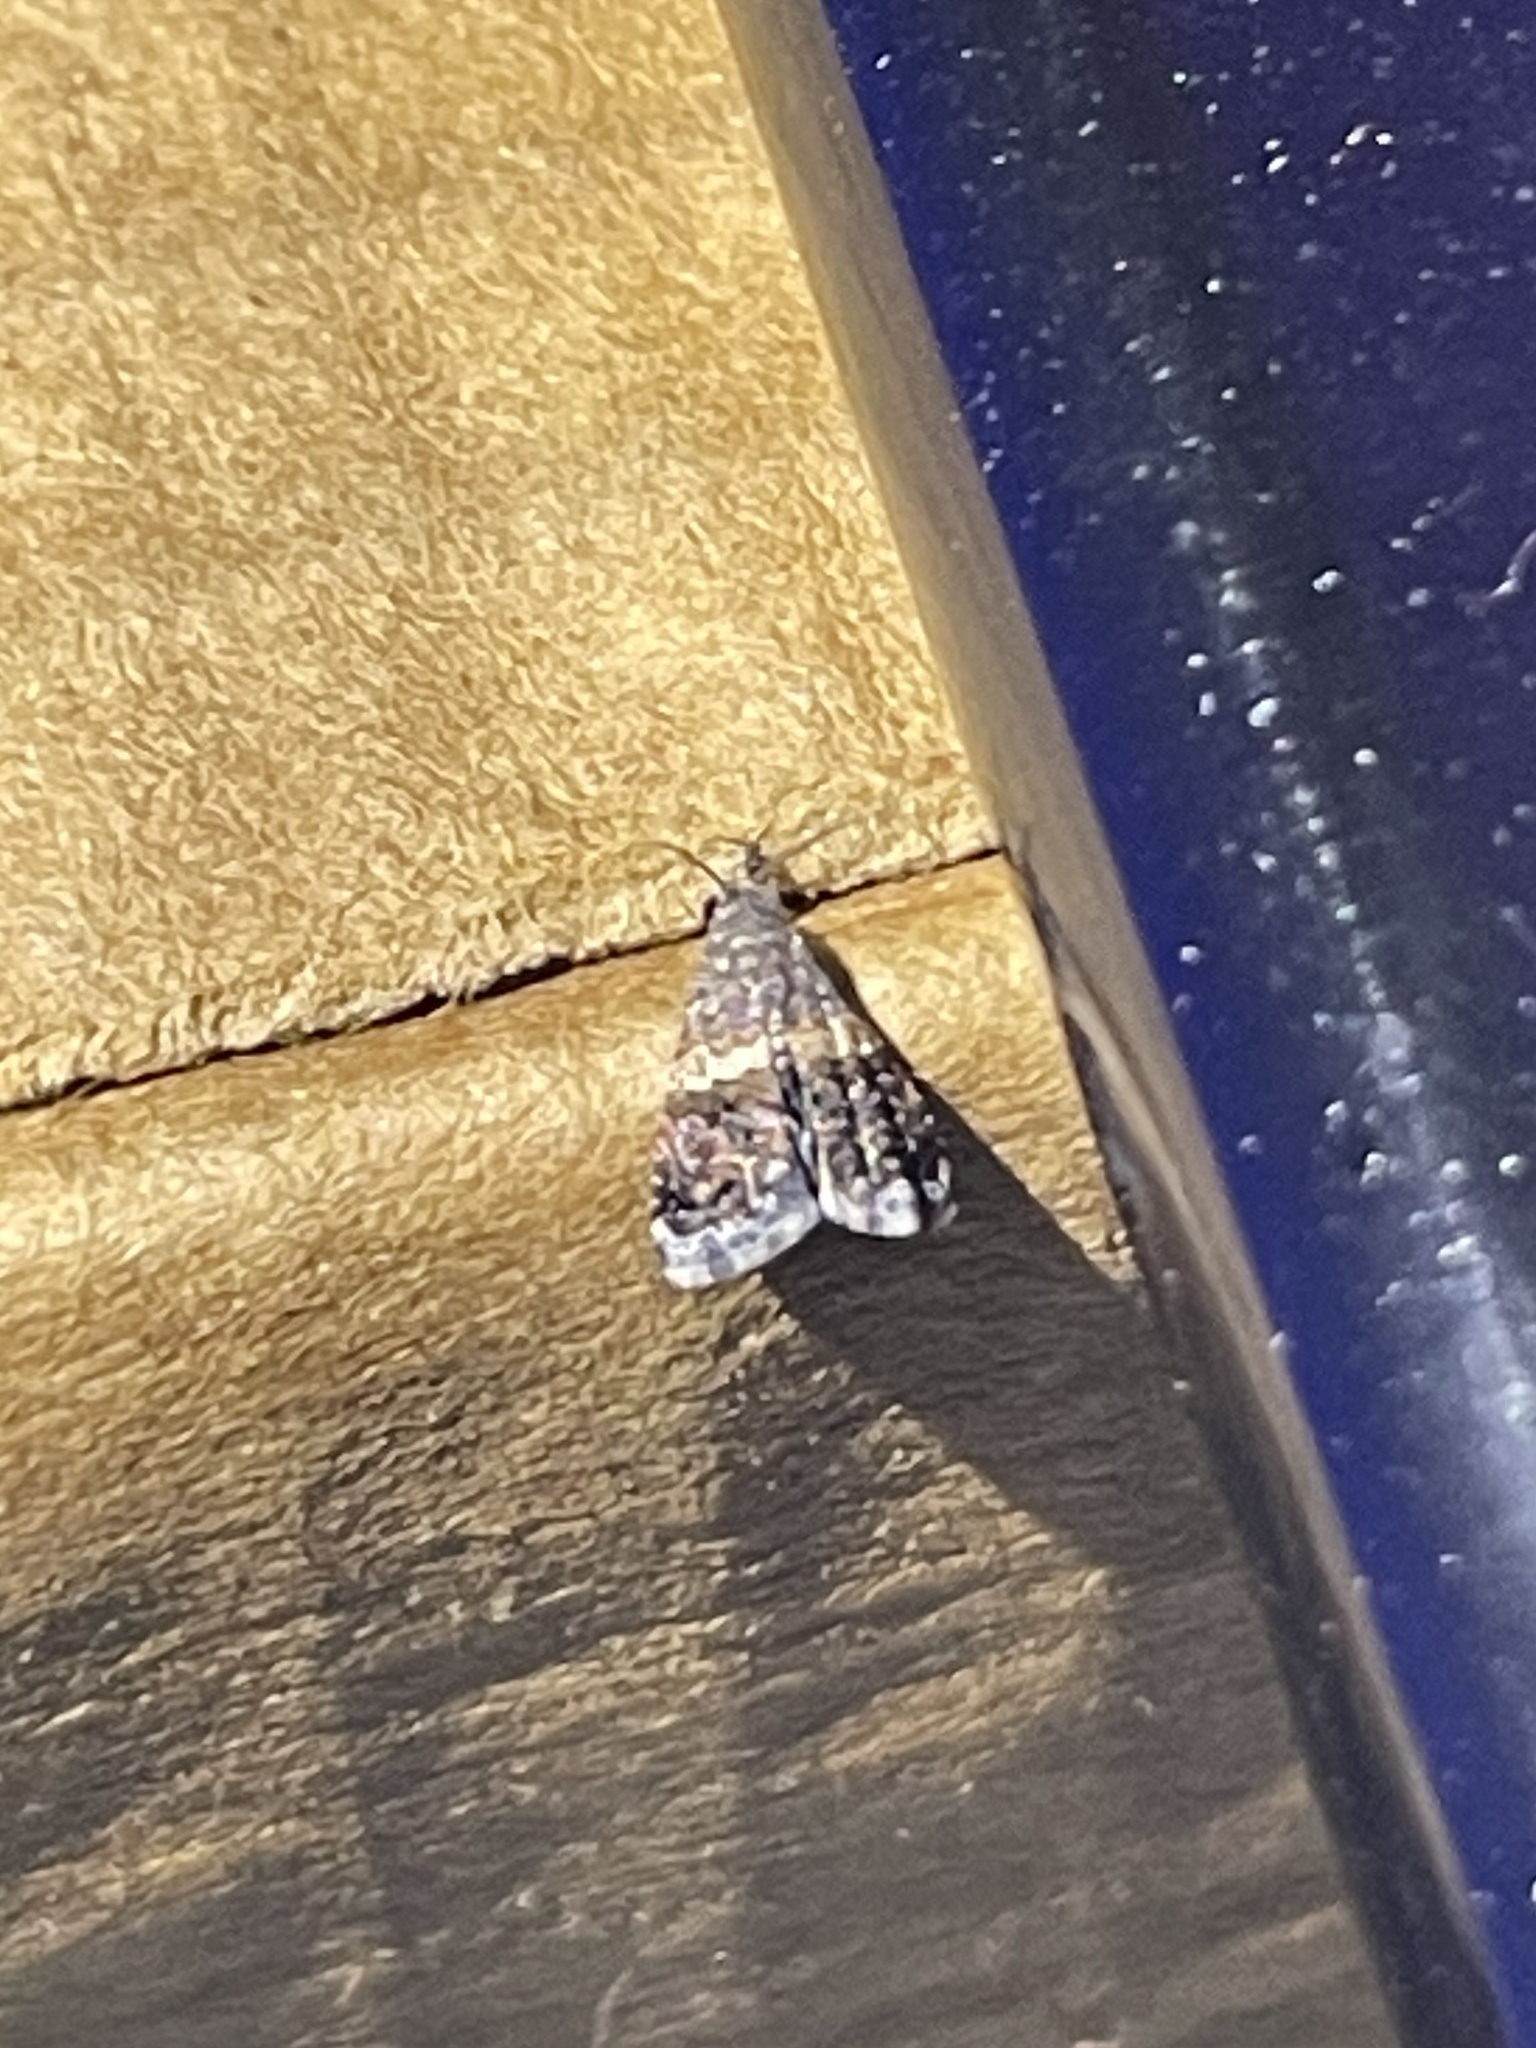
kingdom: Animalia
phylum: Arthropoda
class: Insecta
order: Lepidoptera
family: Noctuidae
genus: Tripudia
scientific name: Tripudia luxuriosa
